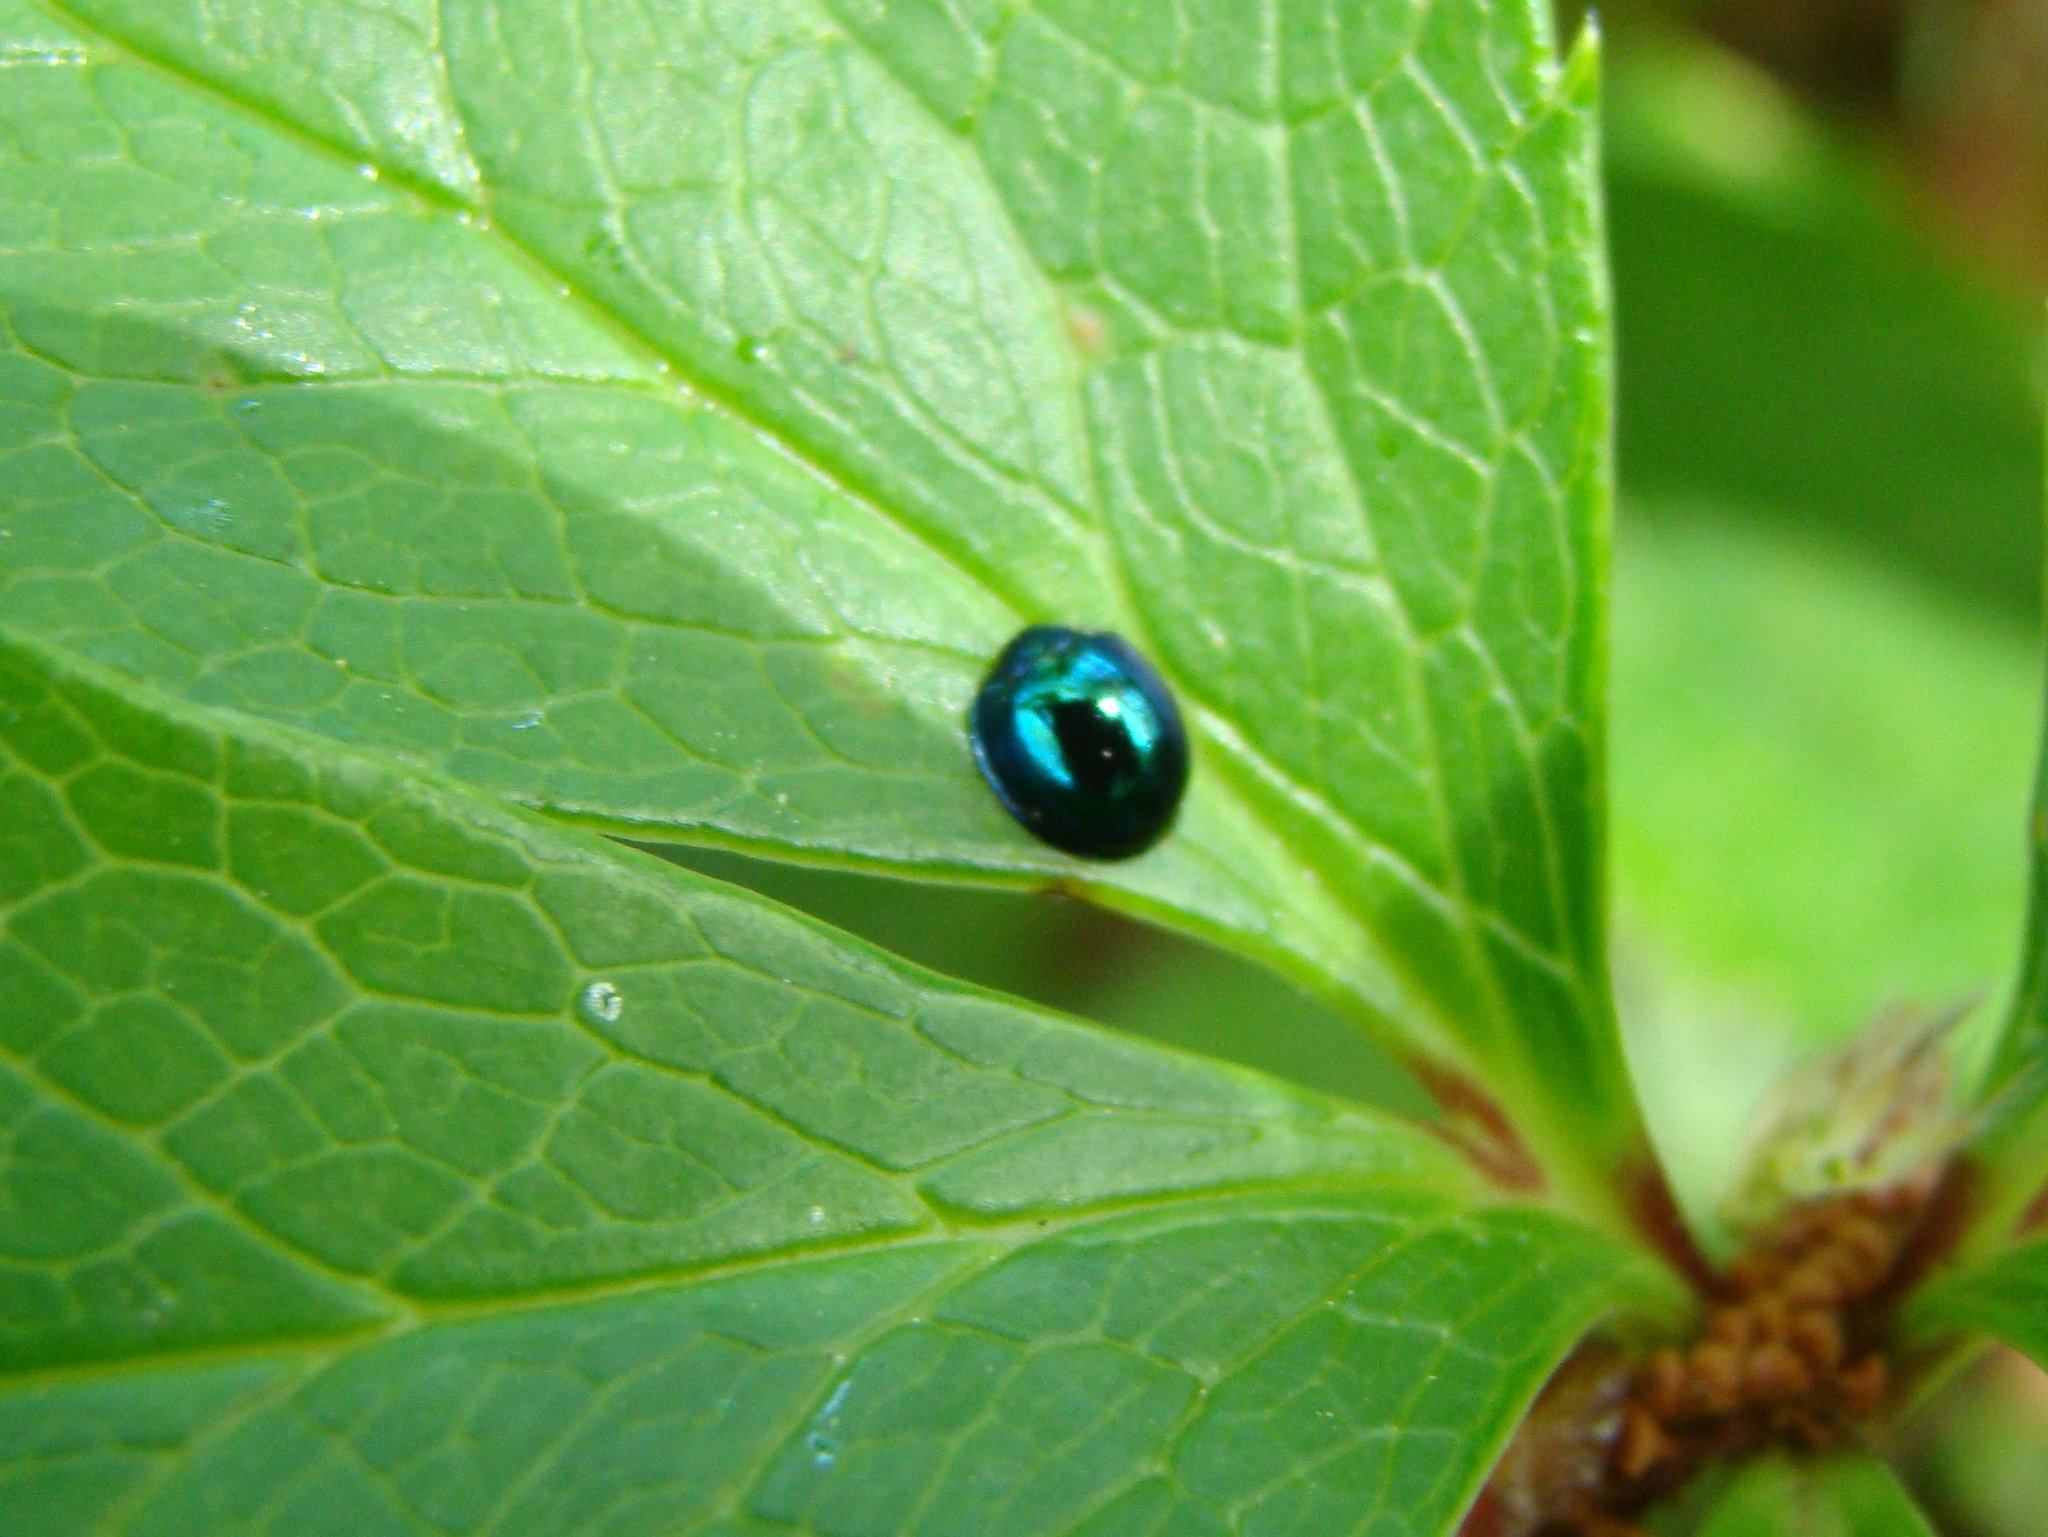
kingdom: Animalia
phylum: Arthropoda
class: Insecta
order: Coleoptera
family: Coccinellidae
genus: Halmus
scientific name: Halmus chalybeus
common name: Steel blue ladybird beetle
